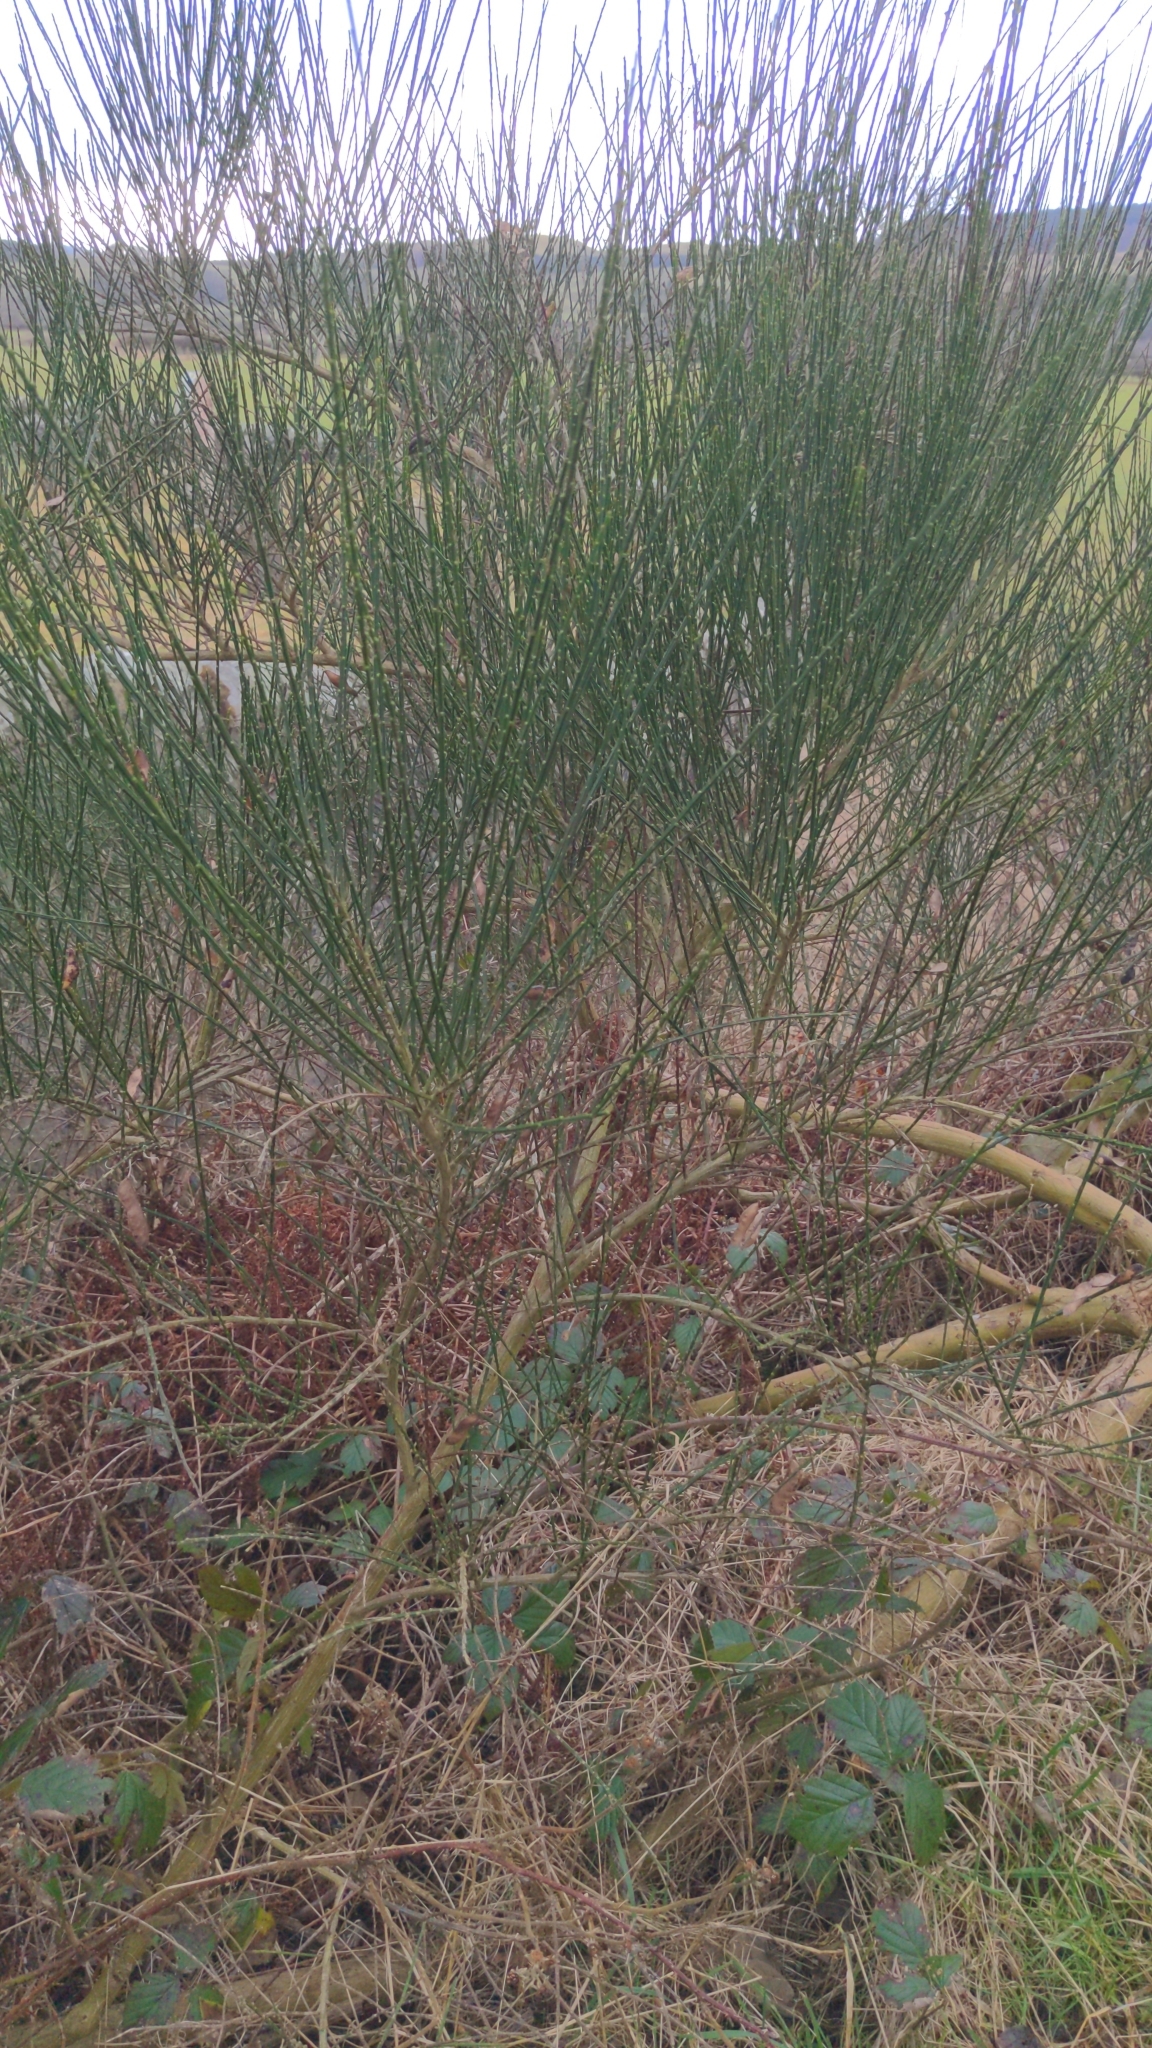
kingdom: Plantae
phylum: Tracheophyta
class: Magnoliopsida
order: Fabales
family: Fabaceae
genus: Cytisus
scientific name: Cytisus scoparius
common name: Scotch broom
